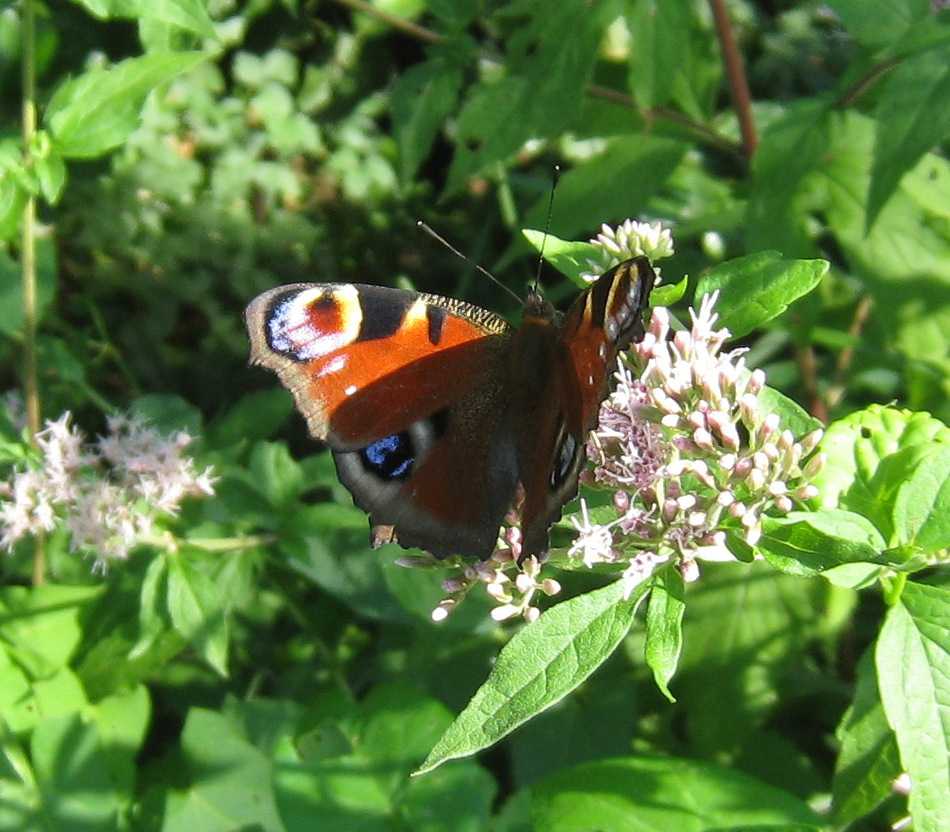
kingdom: Animalia
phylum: Arthropoda
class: Insecta
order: Lepidoptera
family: Nymphalidae
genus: Aglais
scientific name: Aglais io
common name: Peacock
